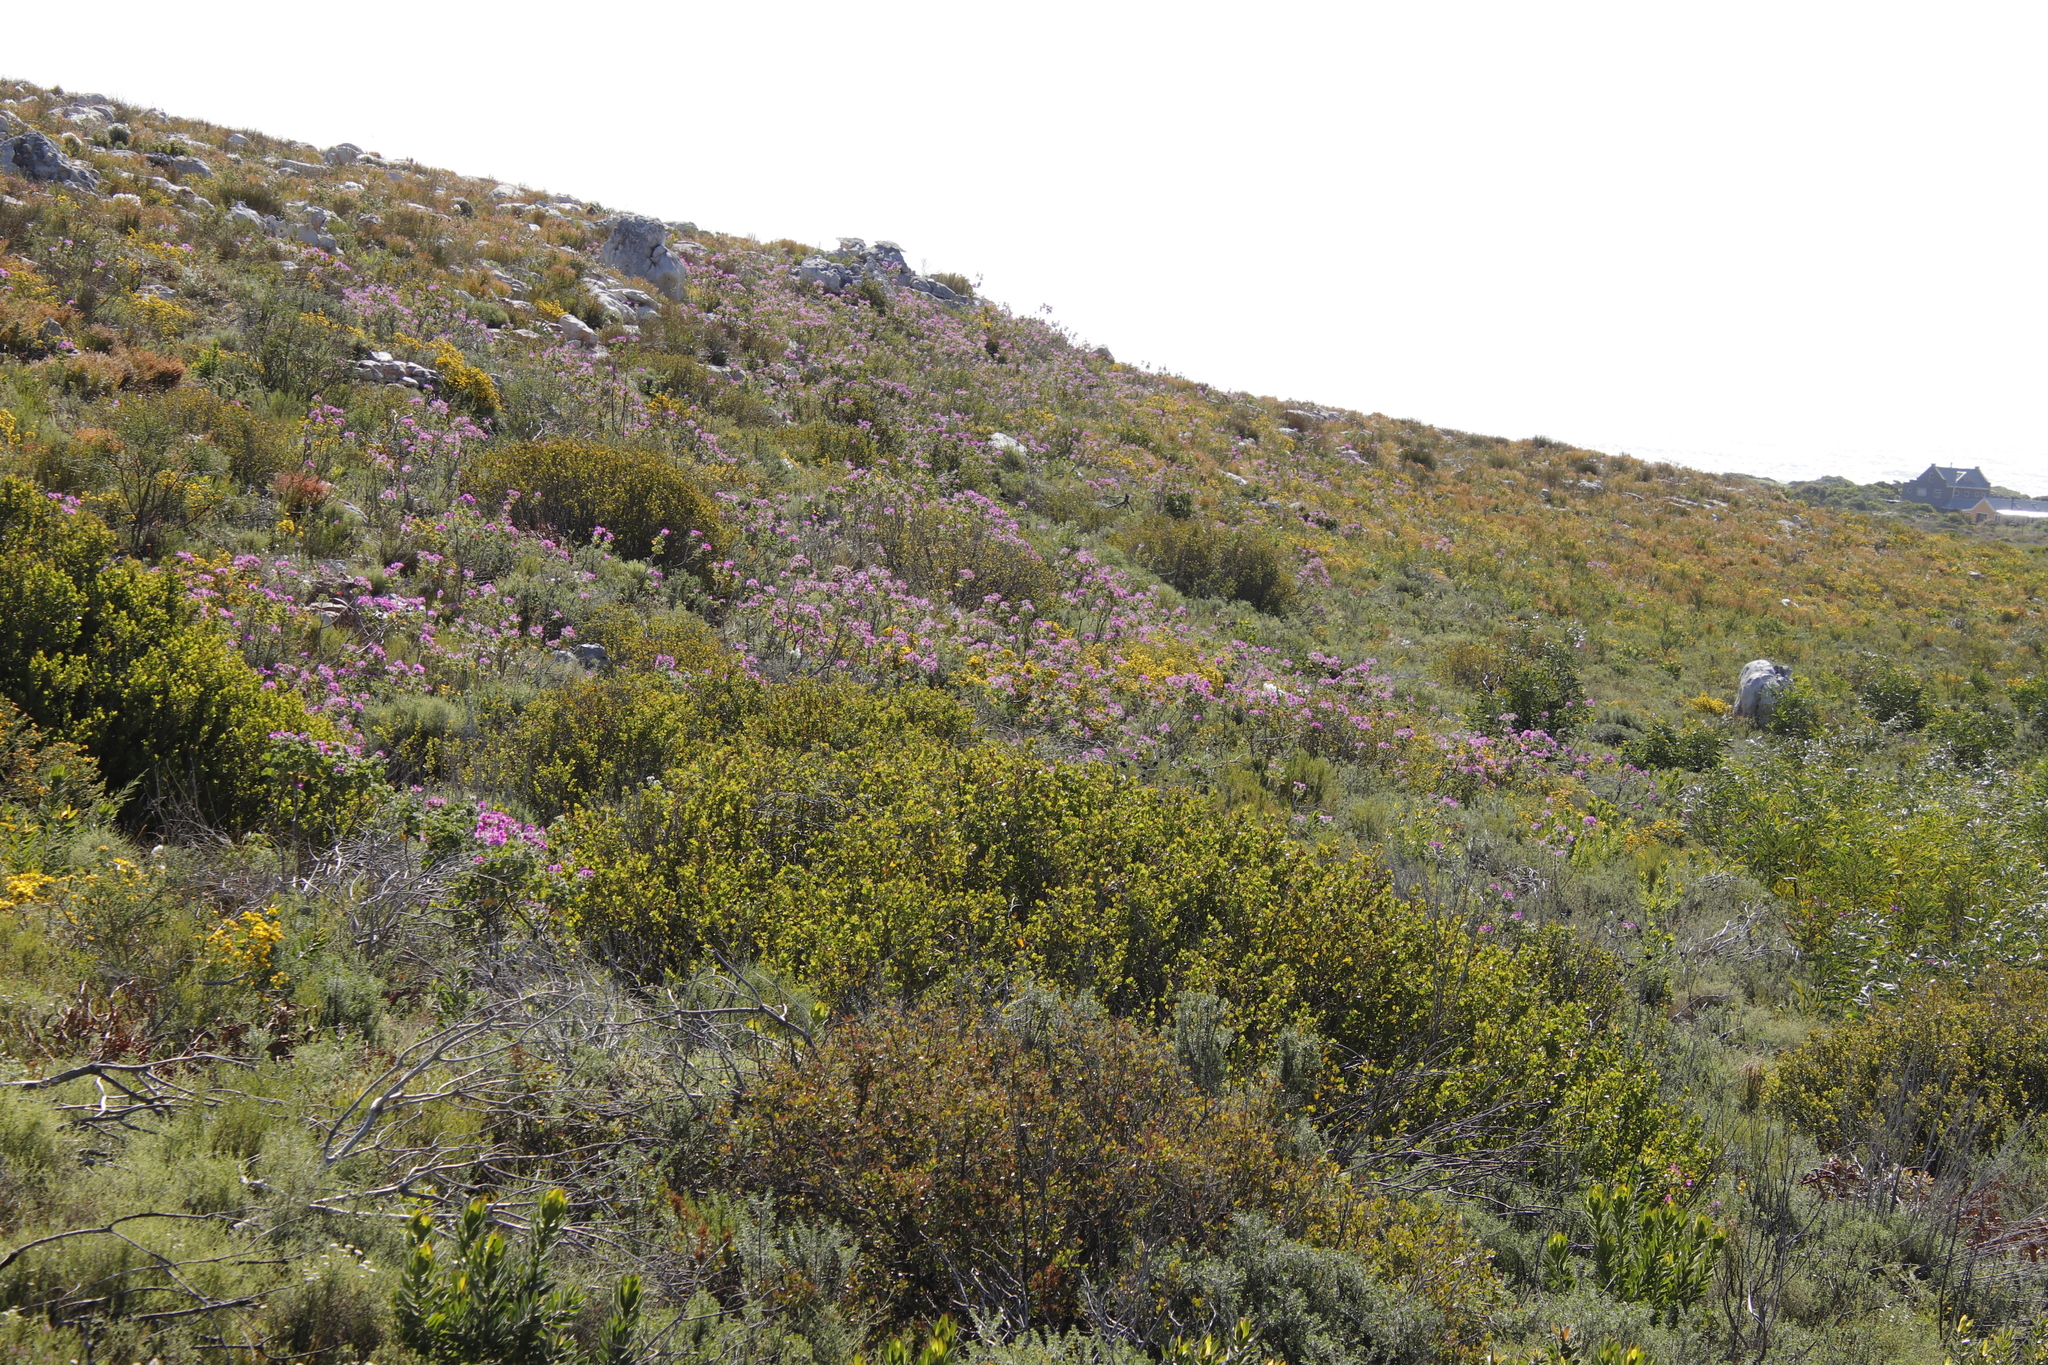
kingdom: Plantae
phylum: Tracheophyta
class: Magnoliopsida
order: Geraniales
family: Geraniaceae
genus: Pelargonium
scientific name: Pelargonium cucullatum
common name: Tree pelargonium
